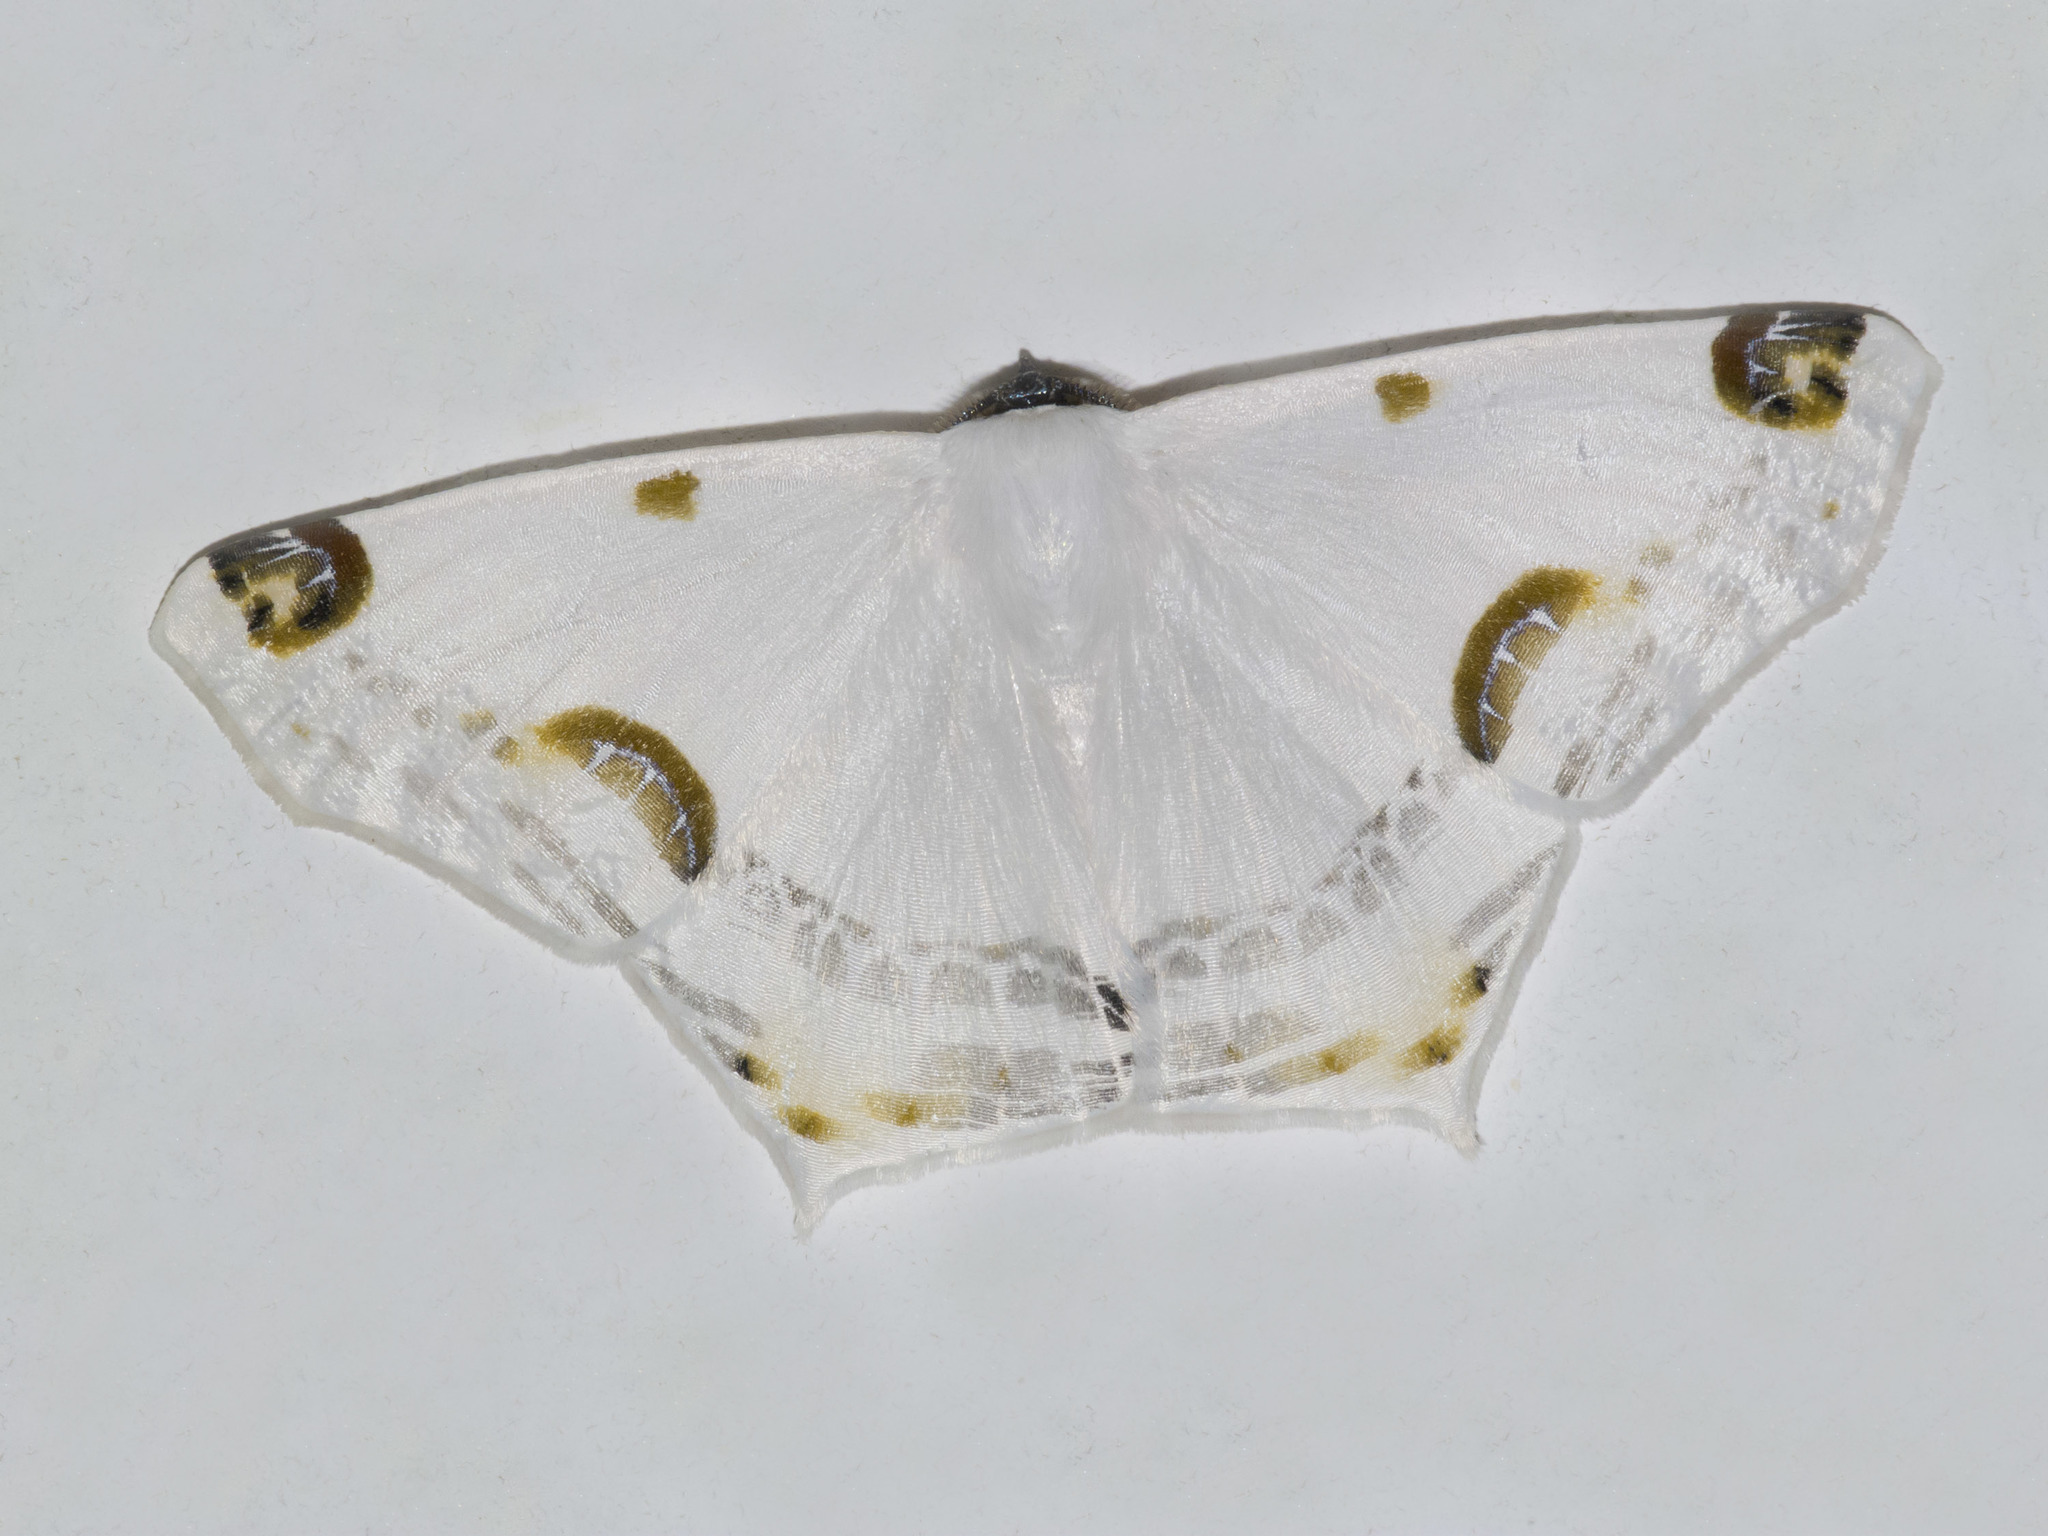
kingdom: Animalia
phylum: Arthropoda
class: Insecta
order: Lepidoptera
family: Geometridae
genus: Sericoptera
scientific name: Sericoptera mahometaria
